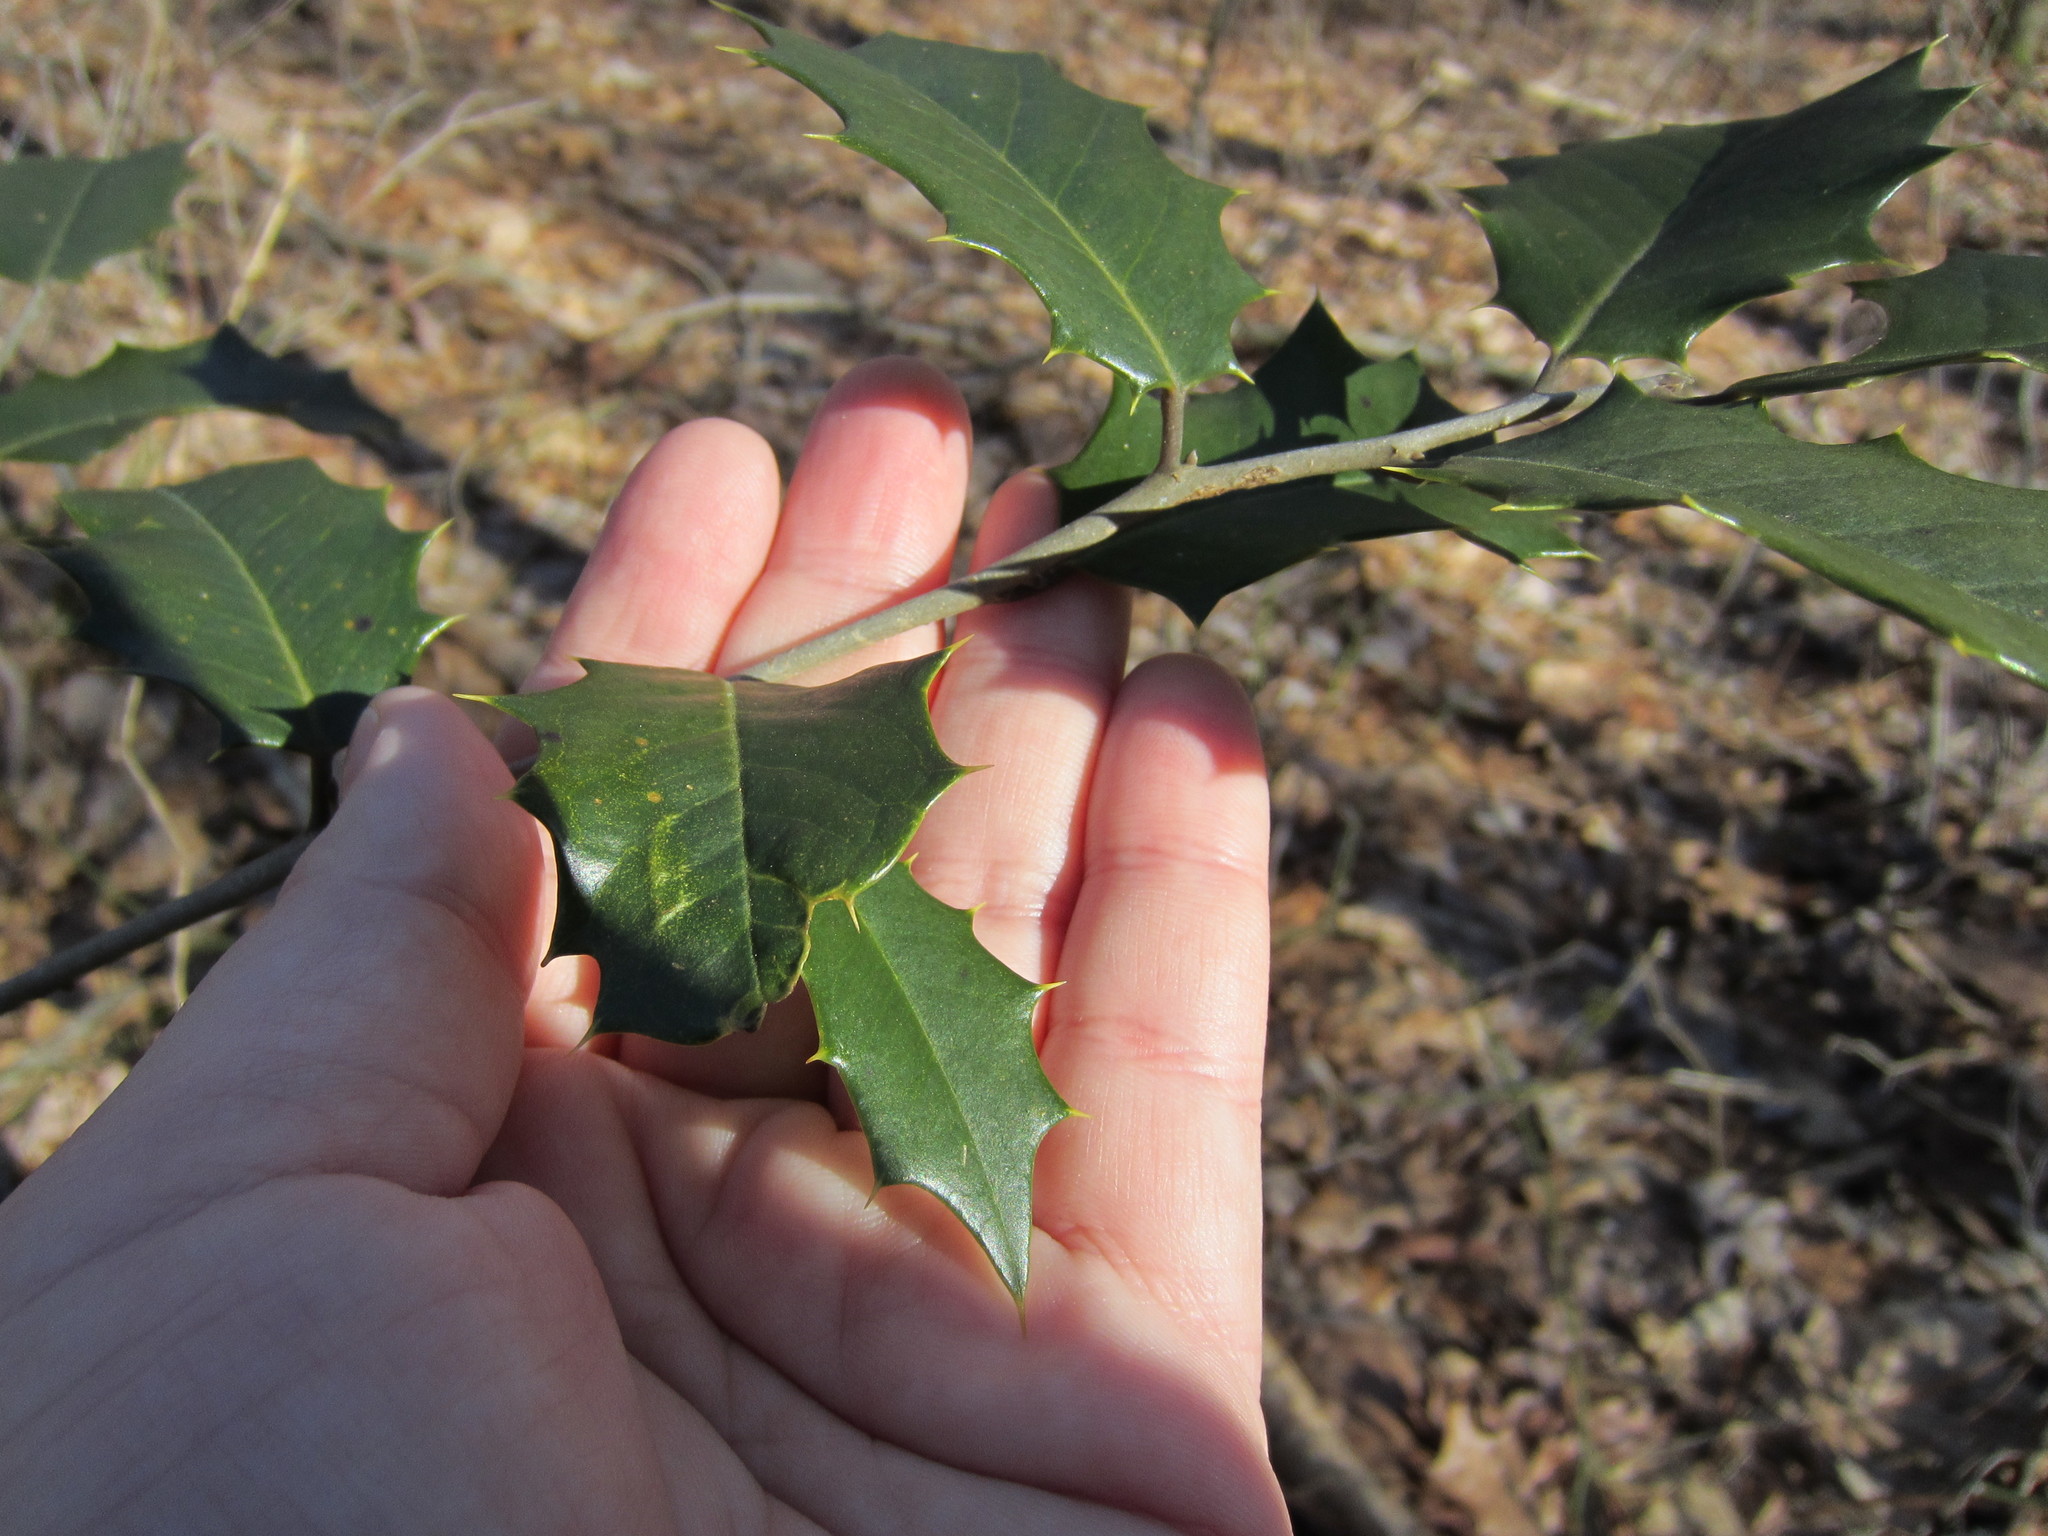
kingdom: Plantae
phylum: Tracheophyta
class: Magnoliopsida
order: Aquifoliales
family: Aquifoliaceae
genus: Ilex
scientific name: Ilex opaca
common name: American holly
